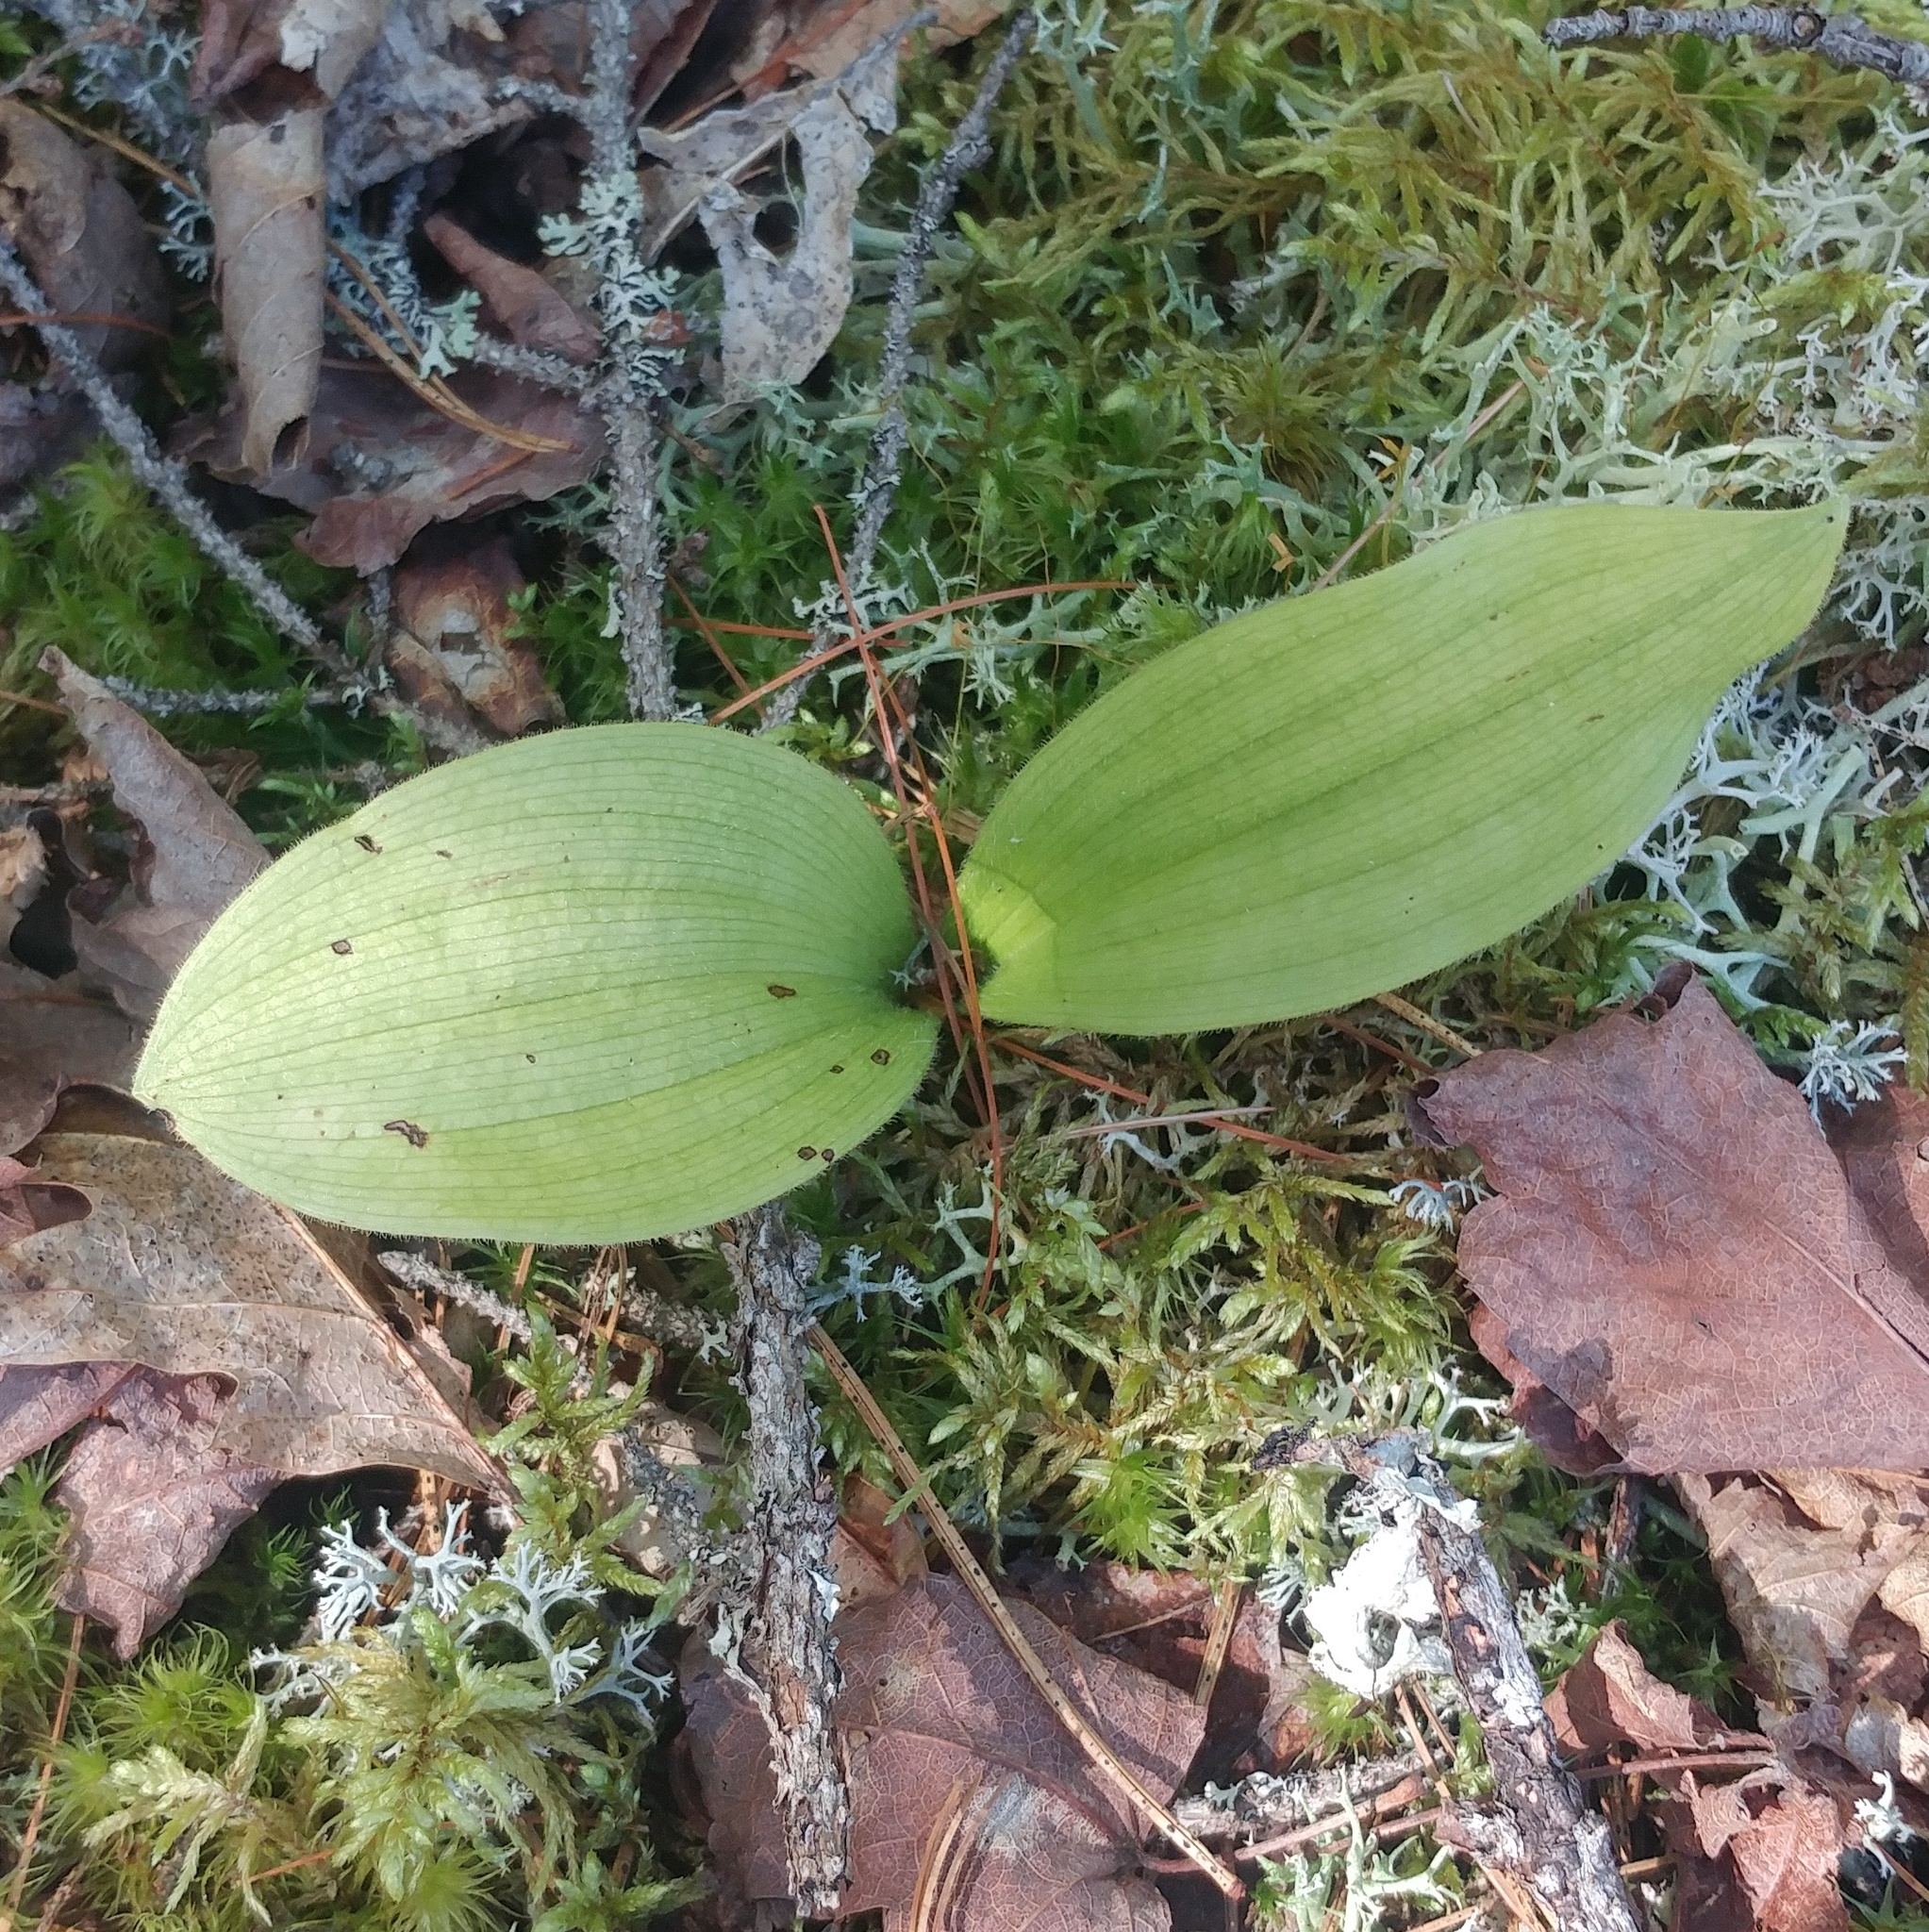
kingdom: Plantae
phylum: Tracheophyta
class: Liliopsida
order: Asparagales
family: Orchidaceae
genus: Cypripedium
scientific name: Cypripedium acaule
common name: Pink lady's-slipper
